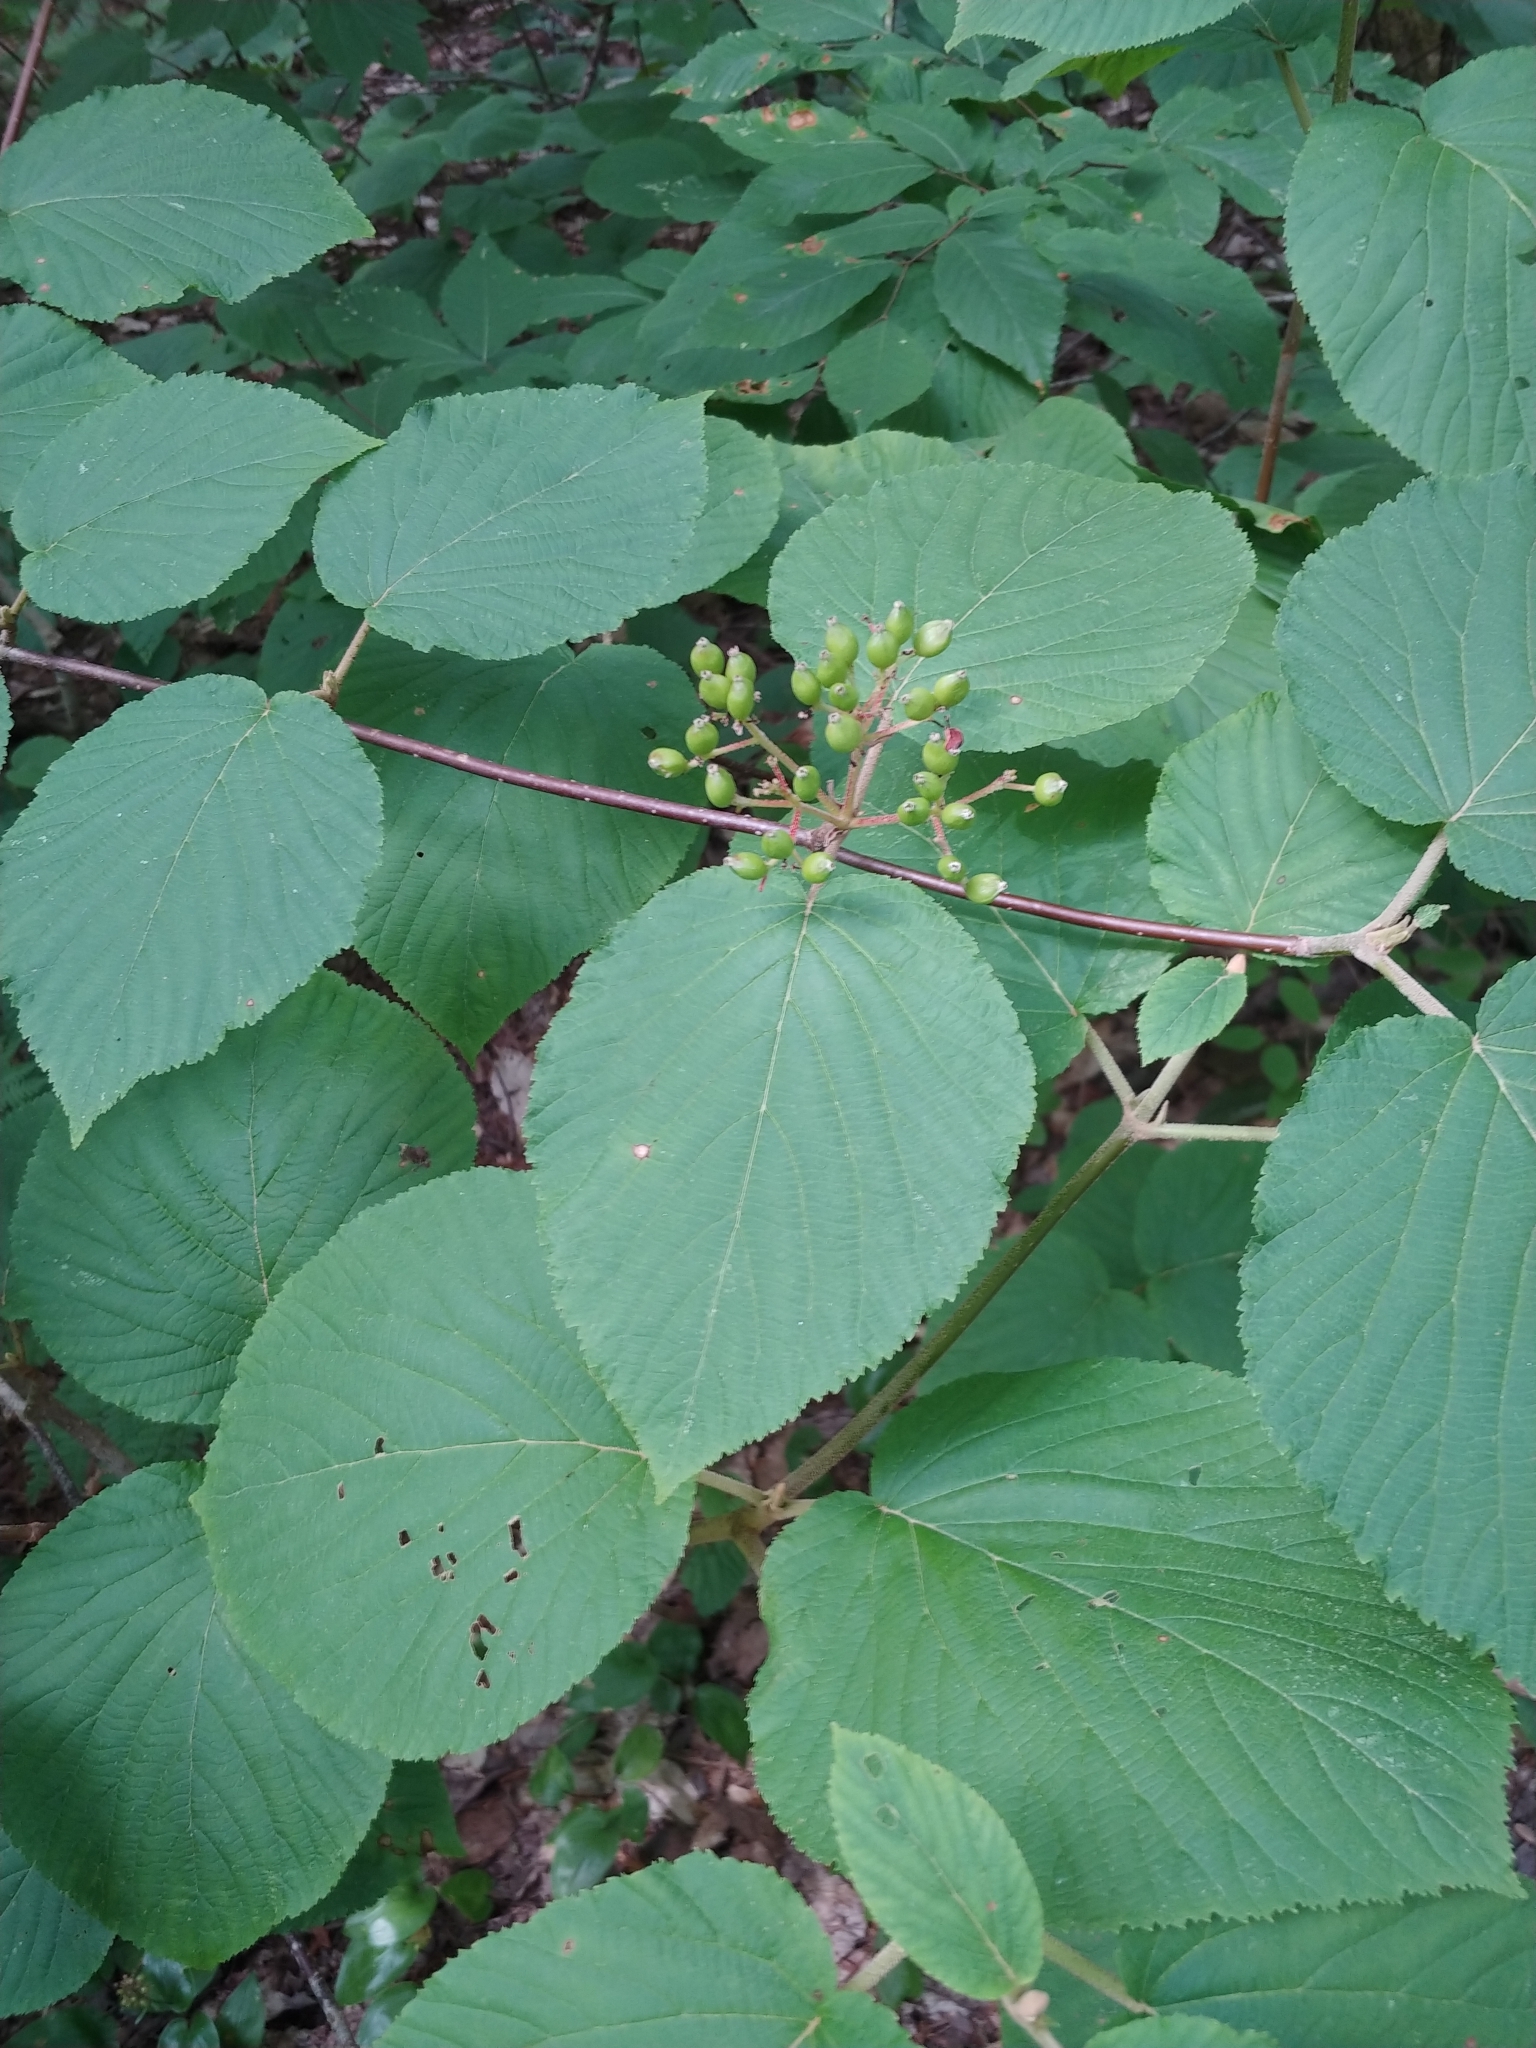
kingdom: Plantae
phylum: Tracheophyta
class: Magnoliopsida
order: Dipsacales
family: Viburnaceae
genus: Viburnum
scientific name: Viburnum lantanoides
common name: Hobblebush
